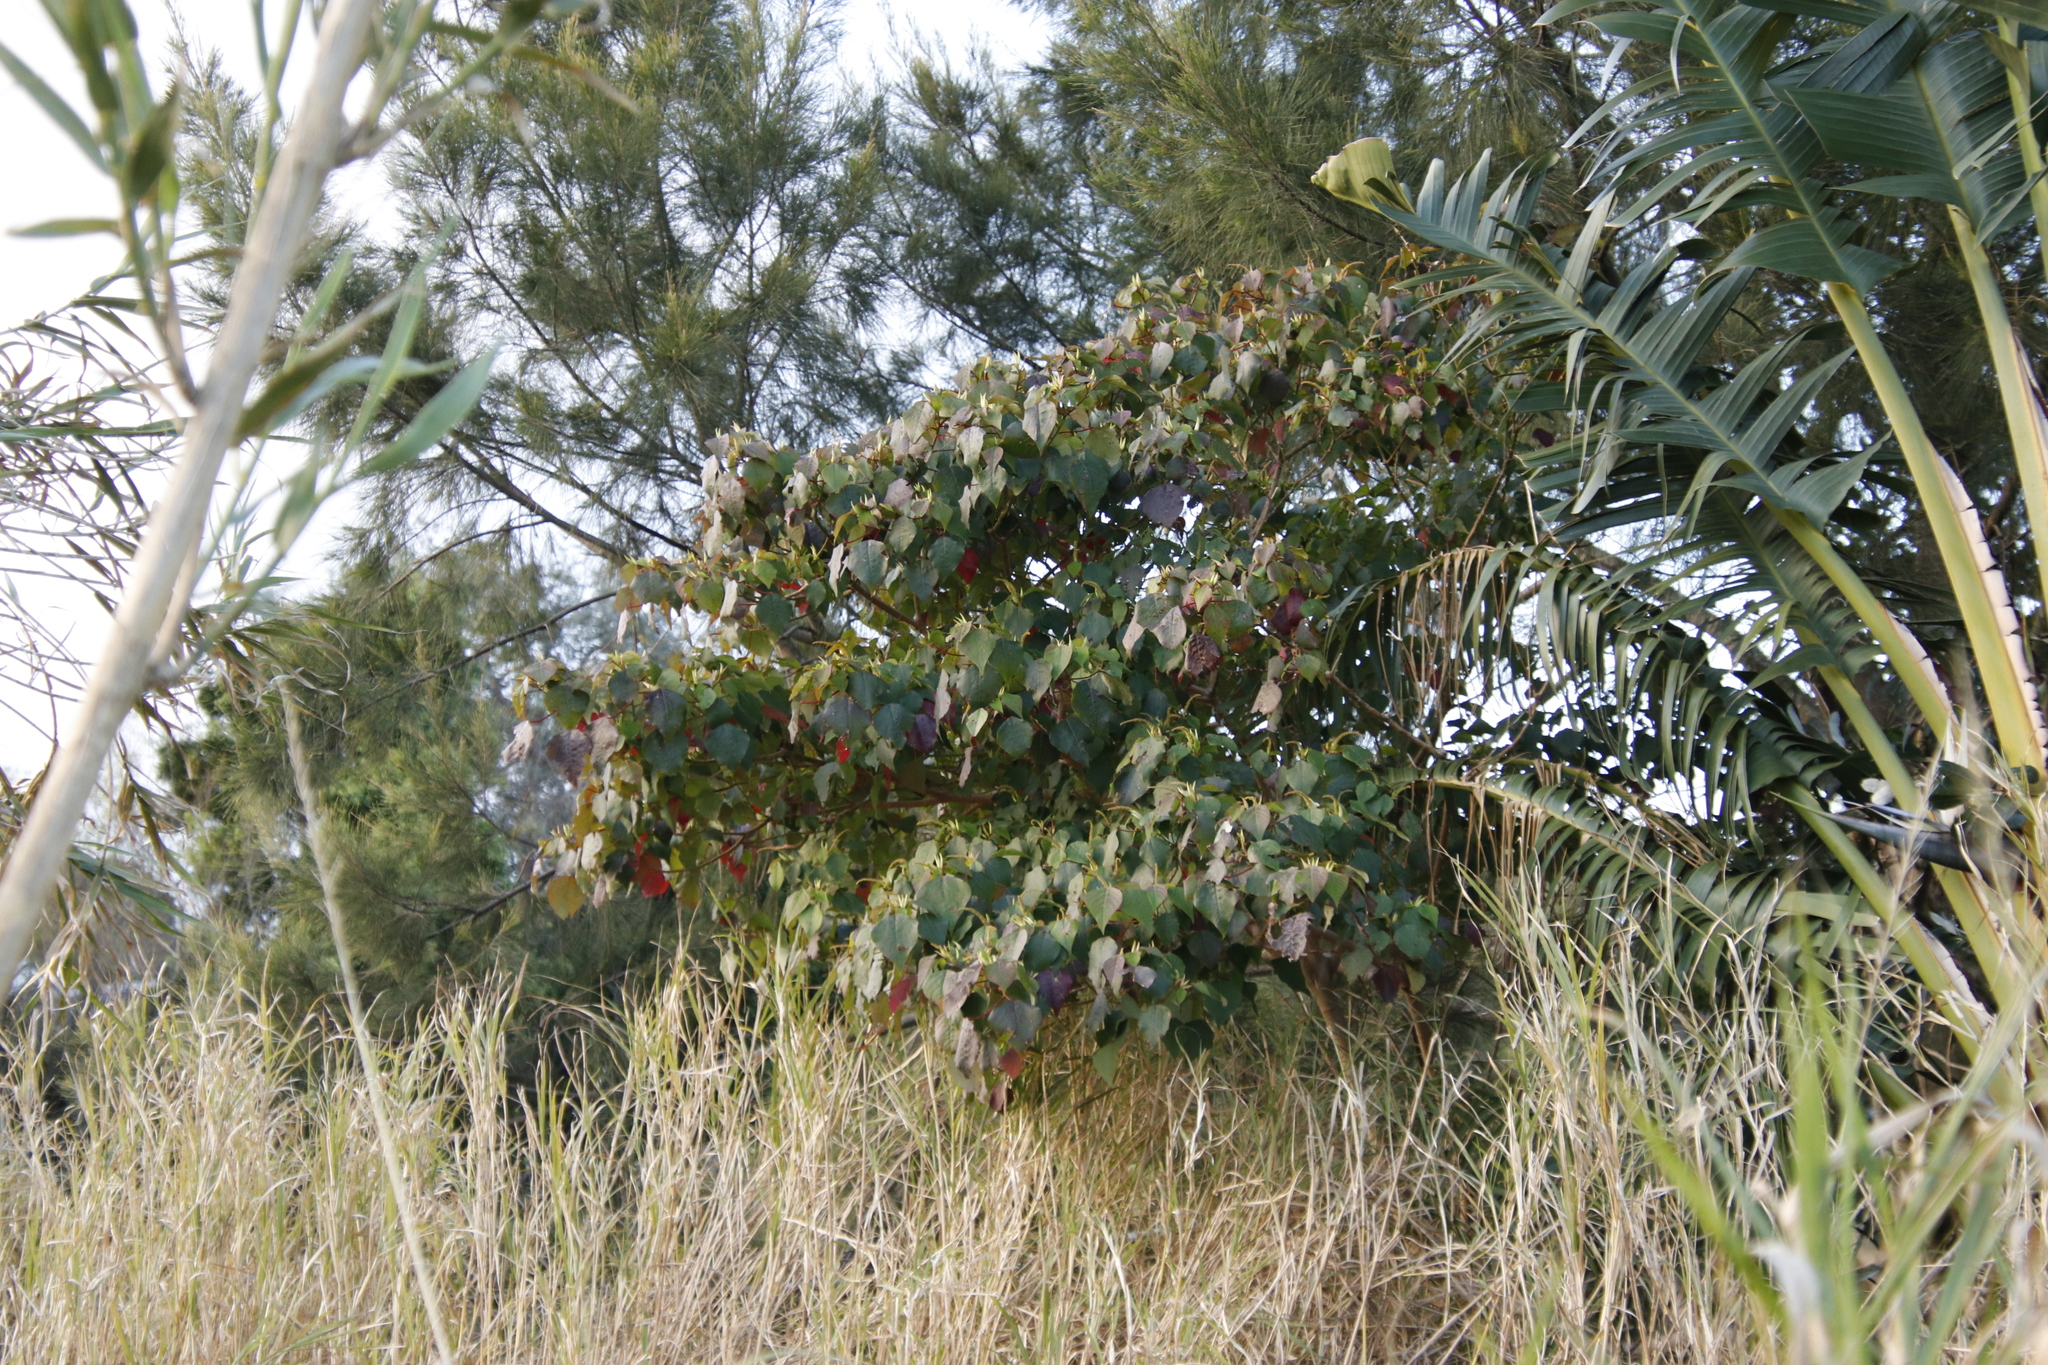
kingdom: Plantae
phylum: Tracheophyta
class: Magnoliopsida
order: Malpighiales
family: Euphorbiaceae
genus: Homalanthus
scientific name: Homalanthus populifolius
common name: Queensland poplar
